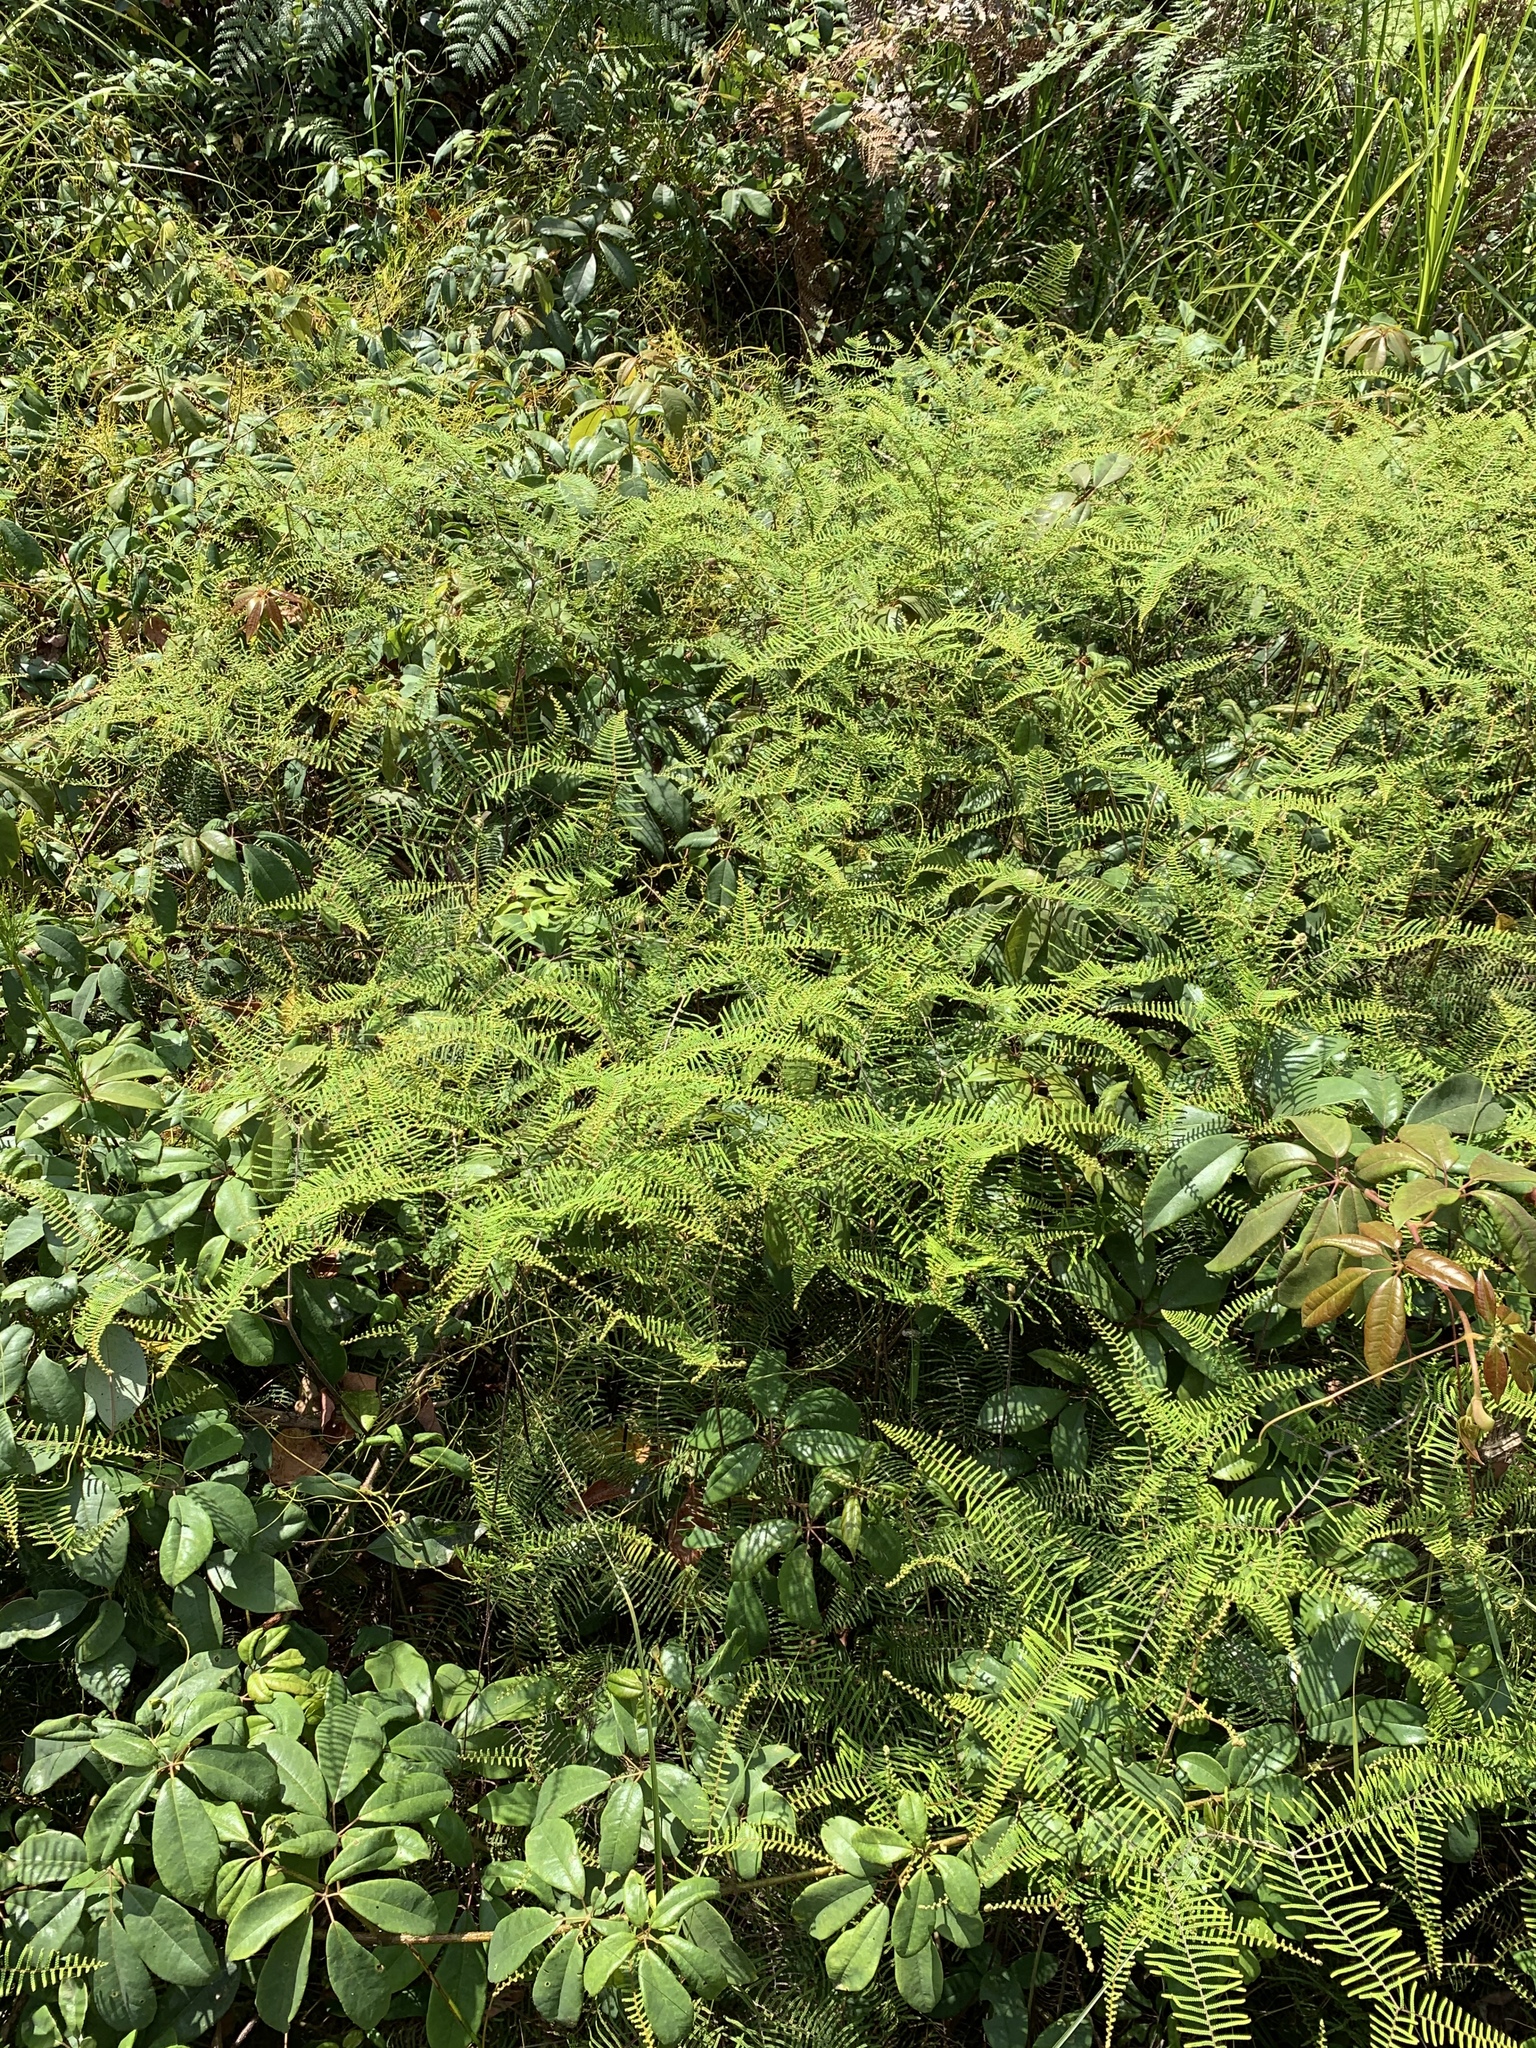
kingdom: Plantae
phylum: Tracheophyta
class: Polypodiopsida
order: Gleicheniales
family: Gleicheniaceae
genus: Gleichenia
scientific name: Gleichenia dicarpa
